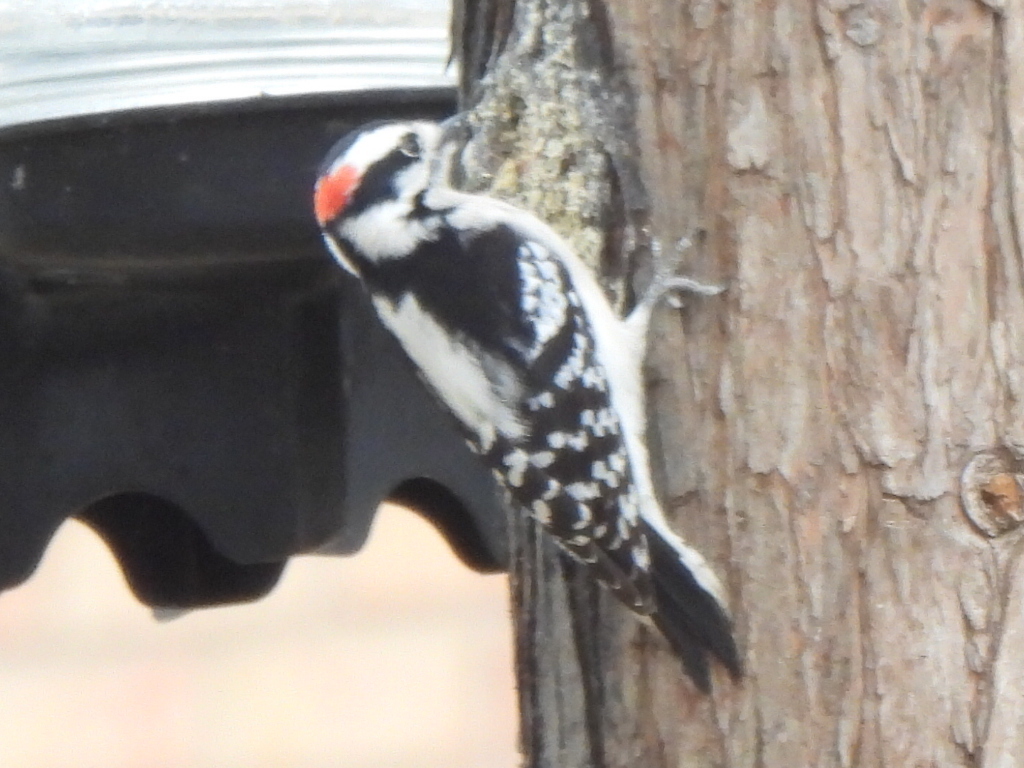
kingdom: Animalia
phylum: Chordata
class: Aves
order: Piciformes
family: Picidae
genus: Dryobates
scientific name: Dryobates pubescens
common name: Downy woodpecker
